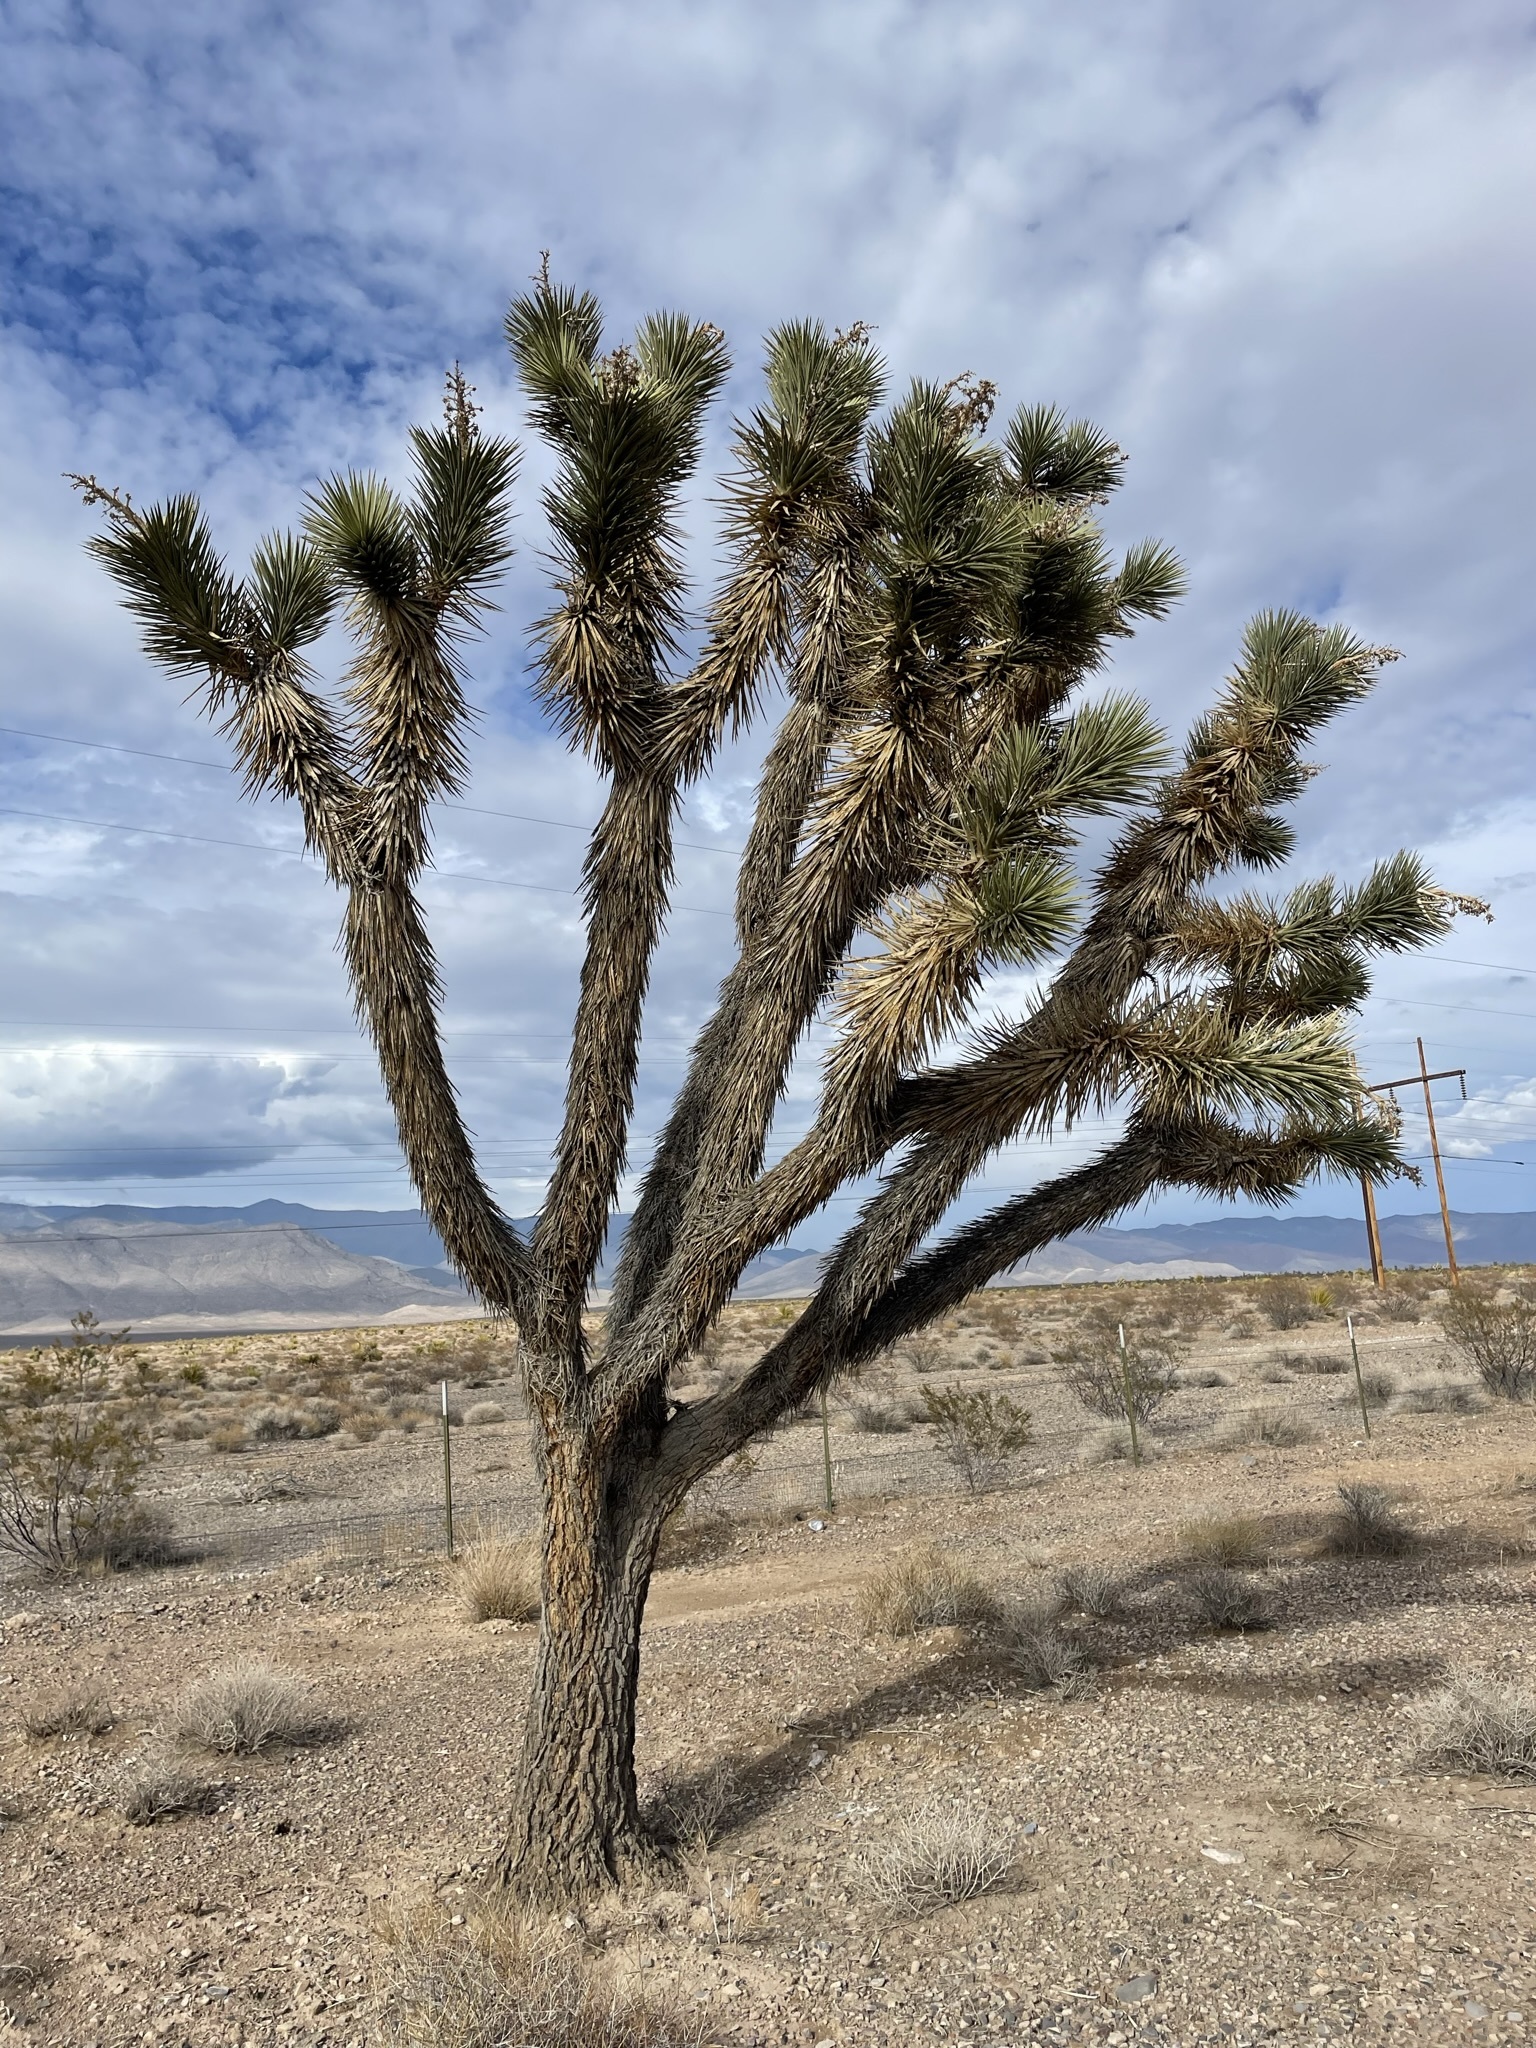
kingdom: Plantae
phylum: Tracheophyta
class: Liliopsida
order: Asparagales
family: Asparagaceae
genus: Yucca
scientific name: Yucca brevifolia
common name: Joshua tree
